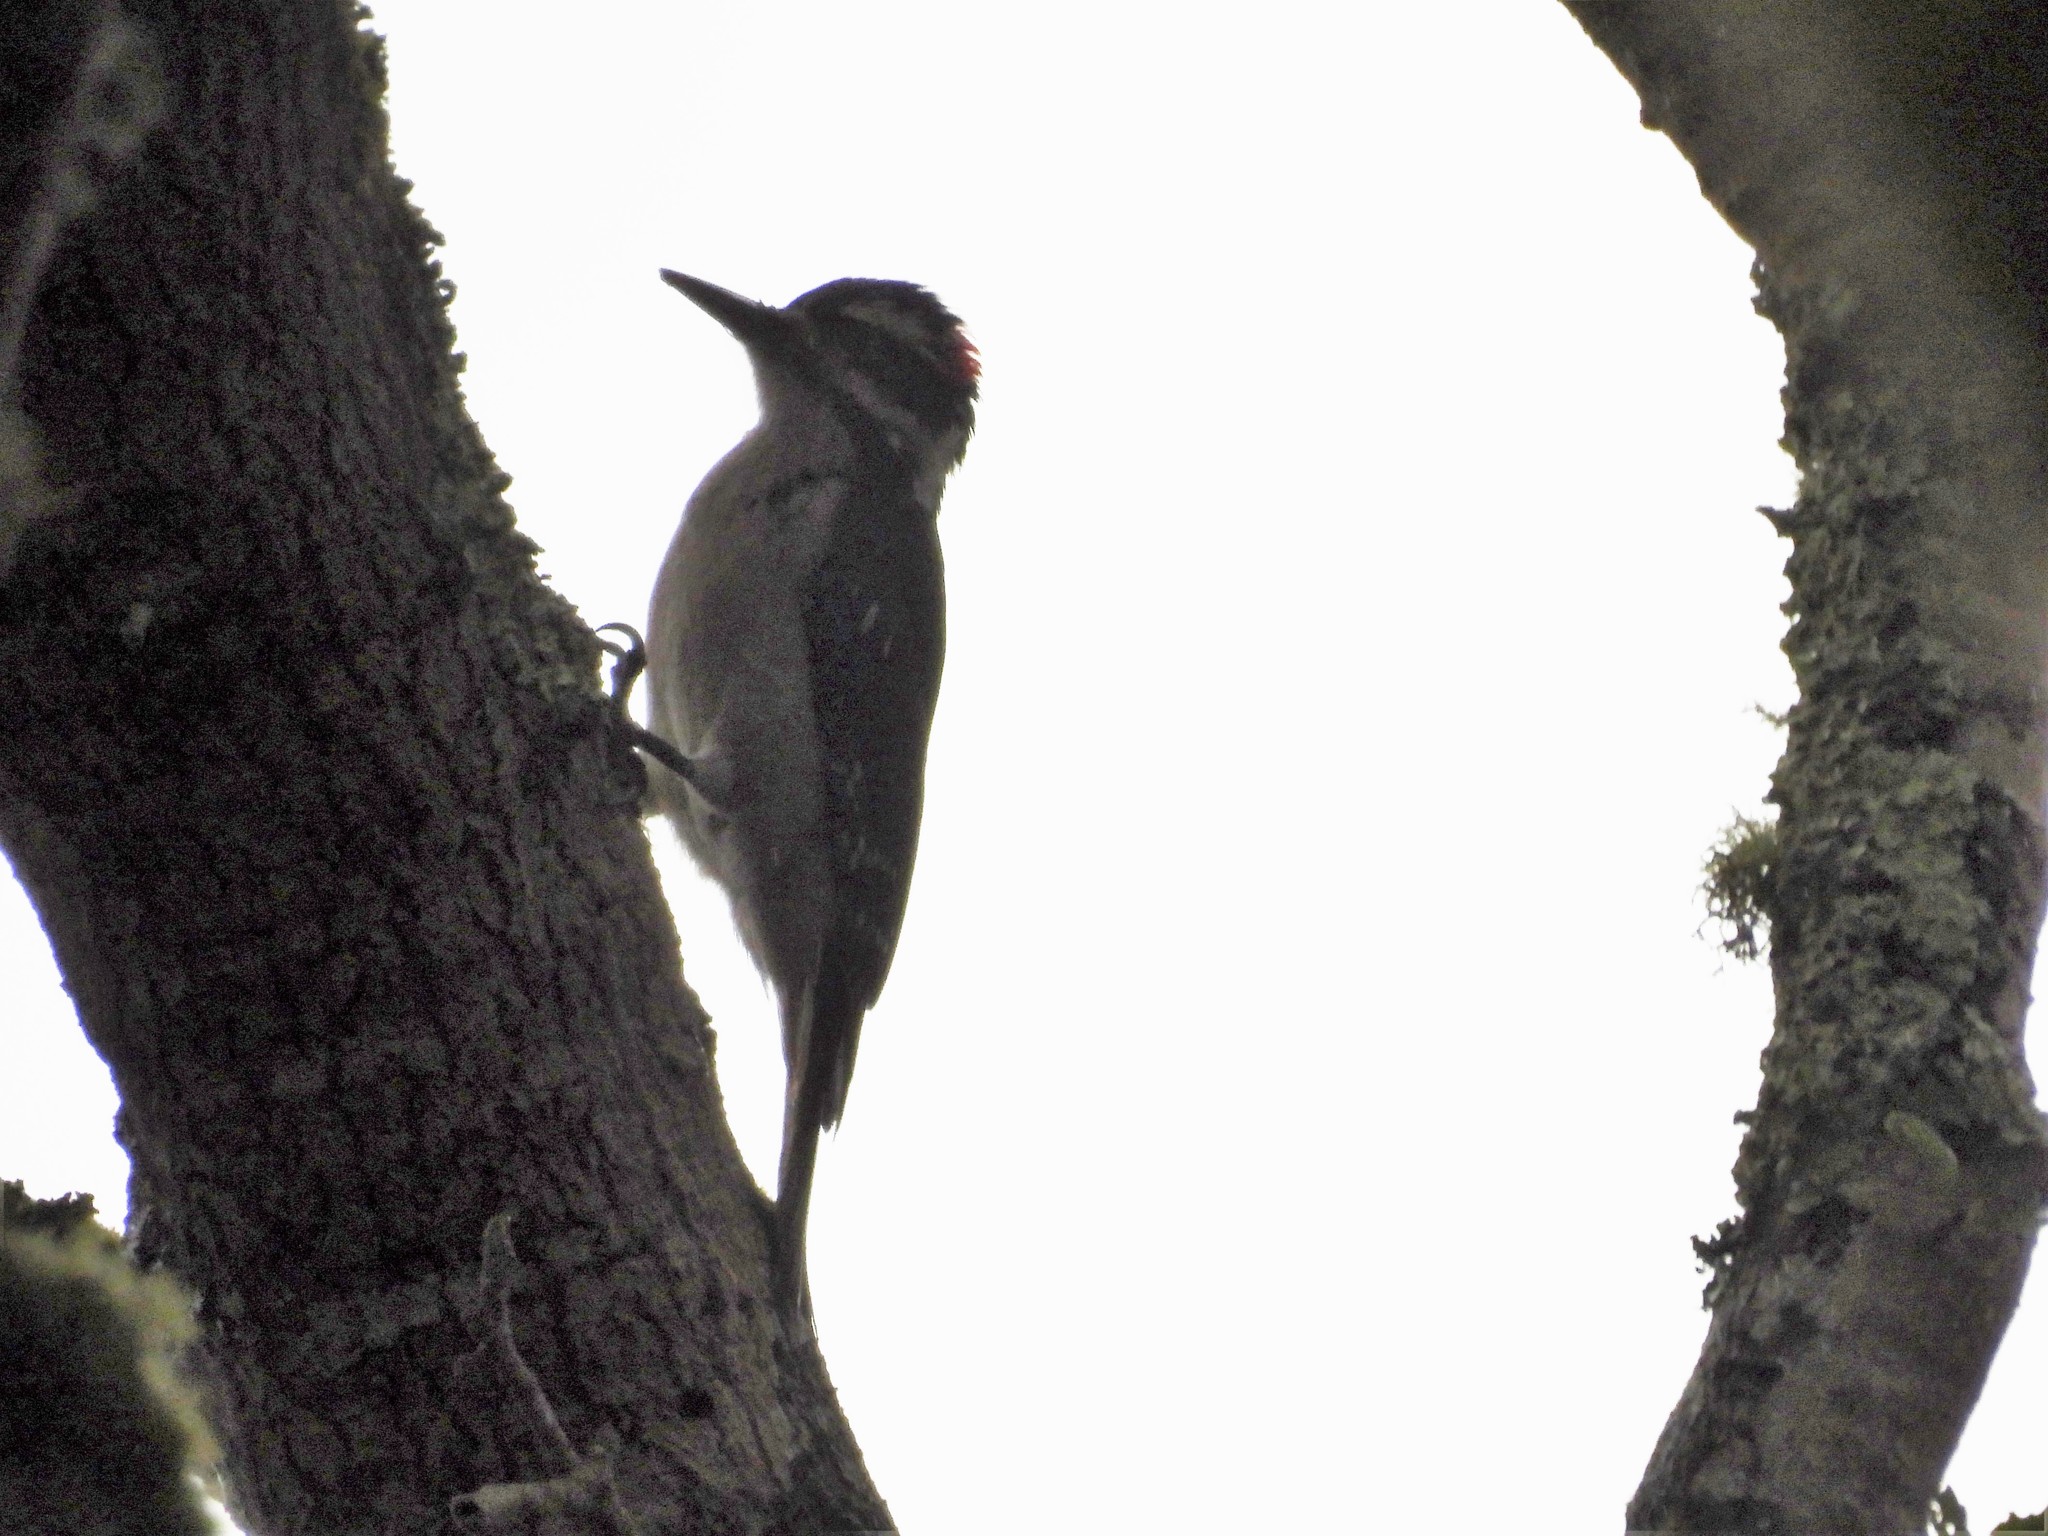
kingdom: Animalia
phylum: Chordata
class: Aves
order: Piciformes
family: Picidae
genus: Leuconotopicus
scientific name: Leuconotopicus villosus
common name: Hairy woodpecker
